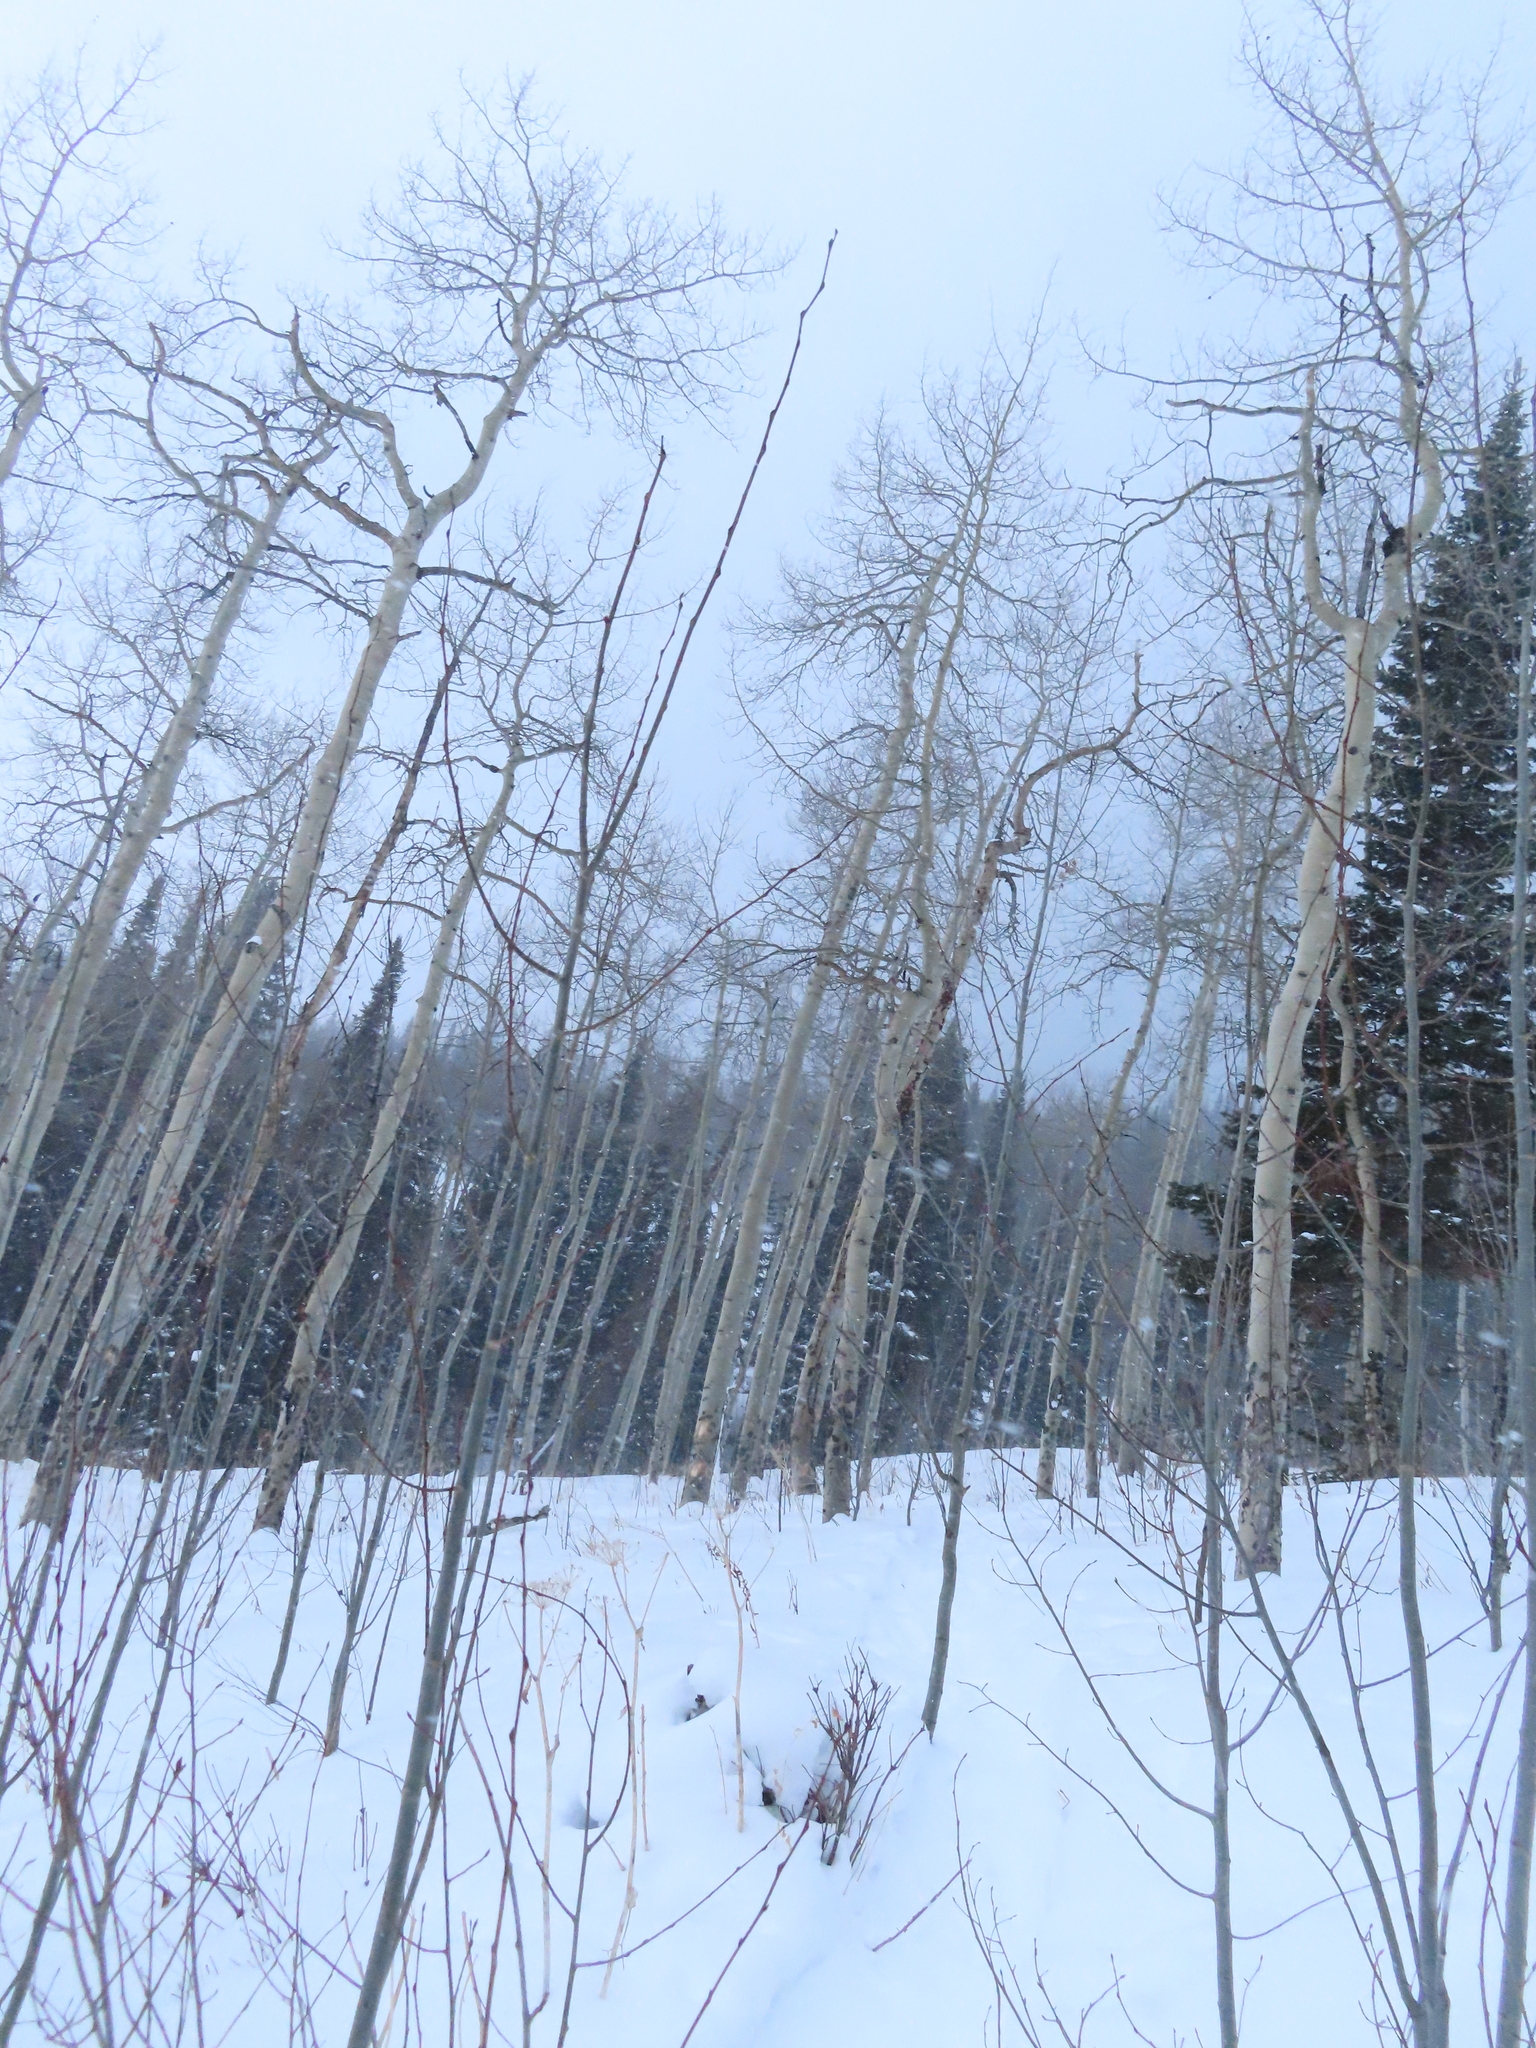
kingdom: Plantae
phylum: Tracheophyta
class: Magnoliopsida
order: Malpighiales
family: Salicaceae
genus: Populus
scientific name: Populus tremuloides
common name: Quaking aspen
